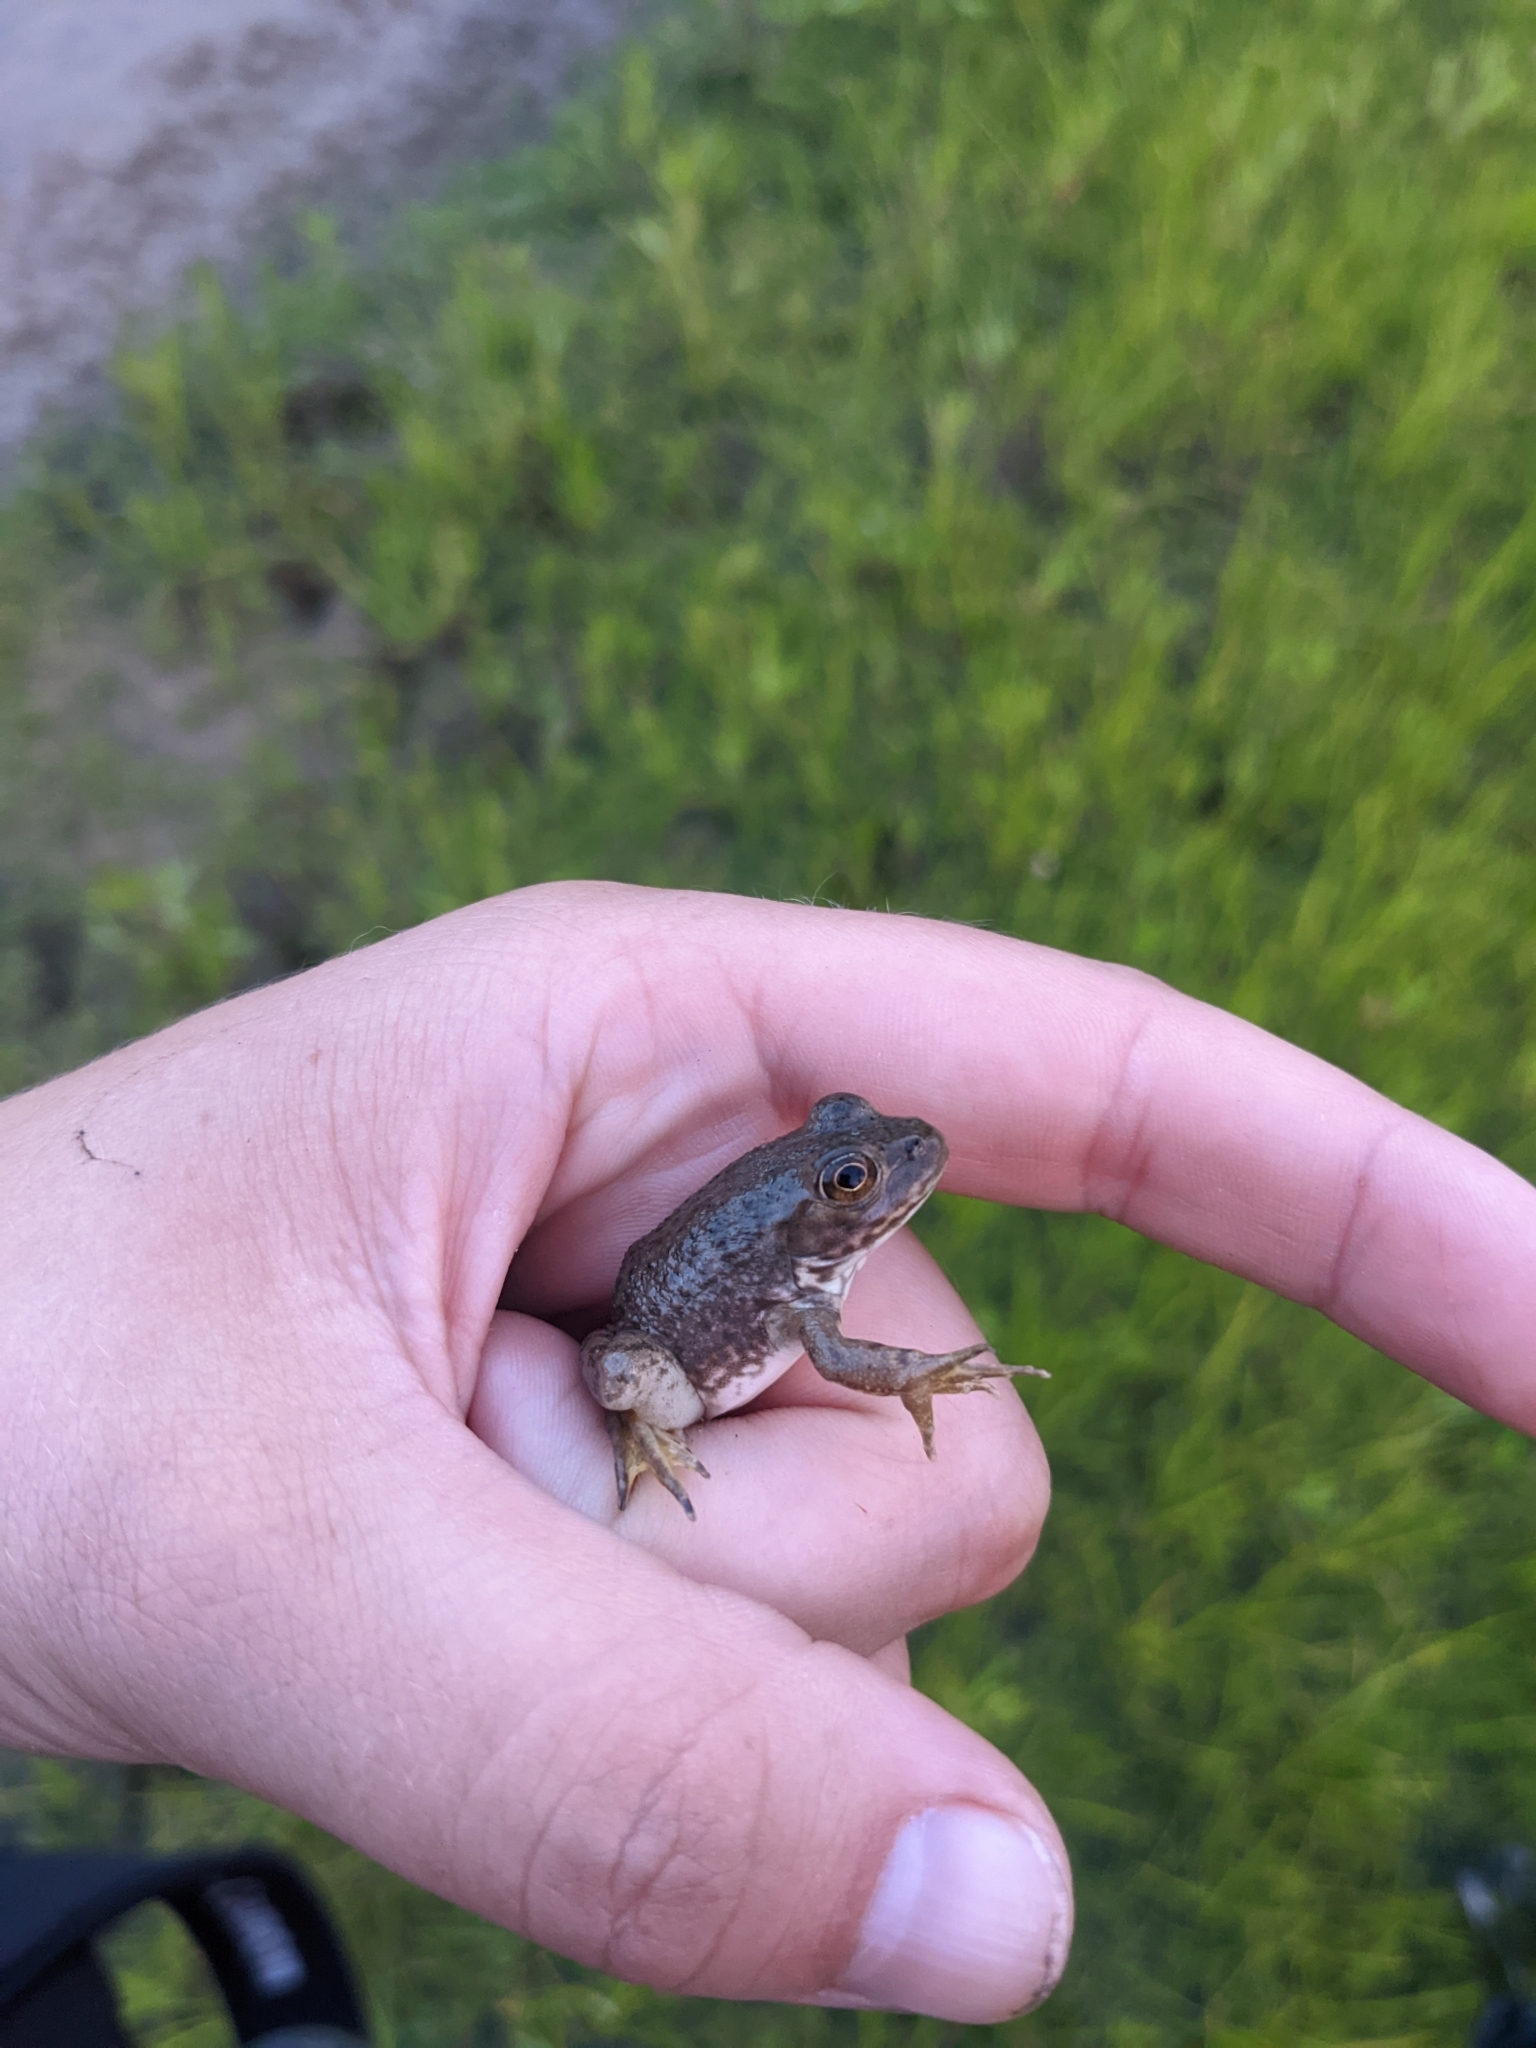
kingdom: Animalia
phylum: Chordata
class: Amphibia
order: Anura
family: Ranidae
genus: Lithobates
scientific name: Lithobates catesbeianus
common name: American bullfrog
